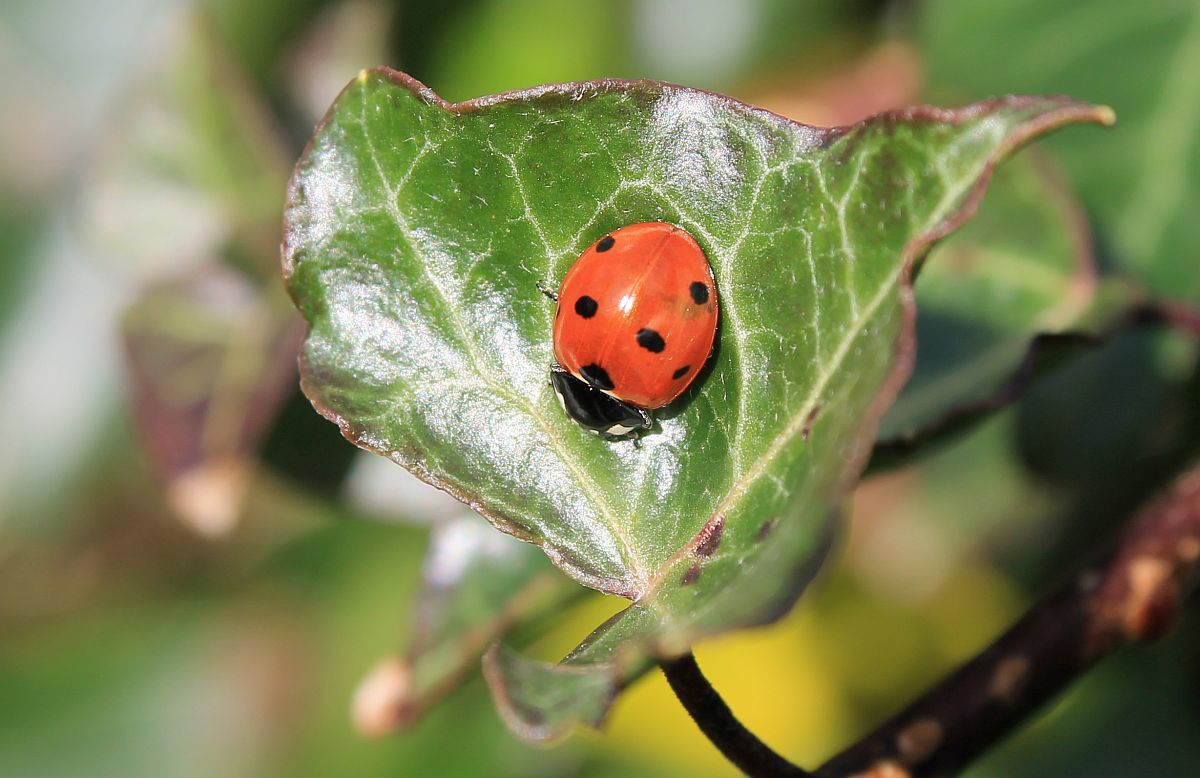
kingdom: Animalia
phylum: Arthropoda
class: Insecta
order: Coleoptera
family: Coccinellidae
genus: Coccinella
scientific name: Coccinella septempunctata
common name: Sevenspotted lady beetle
